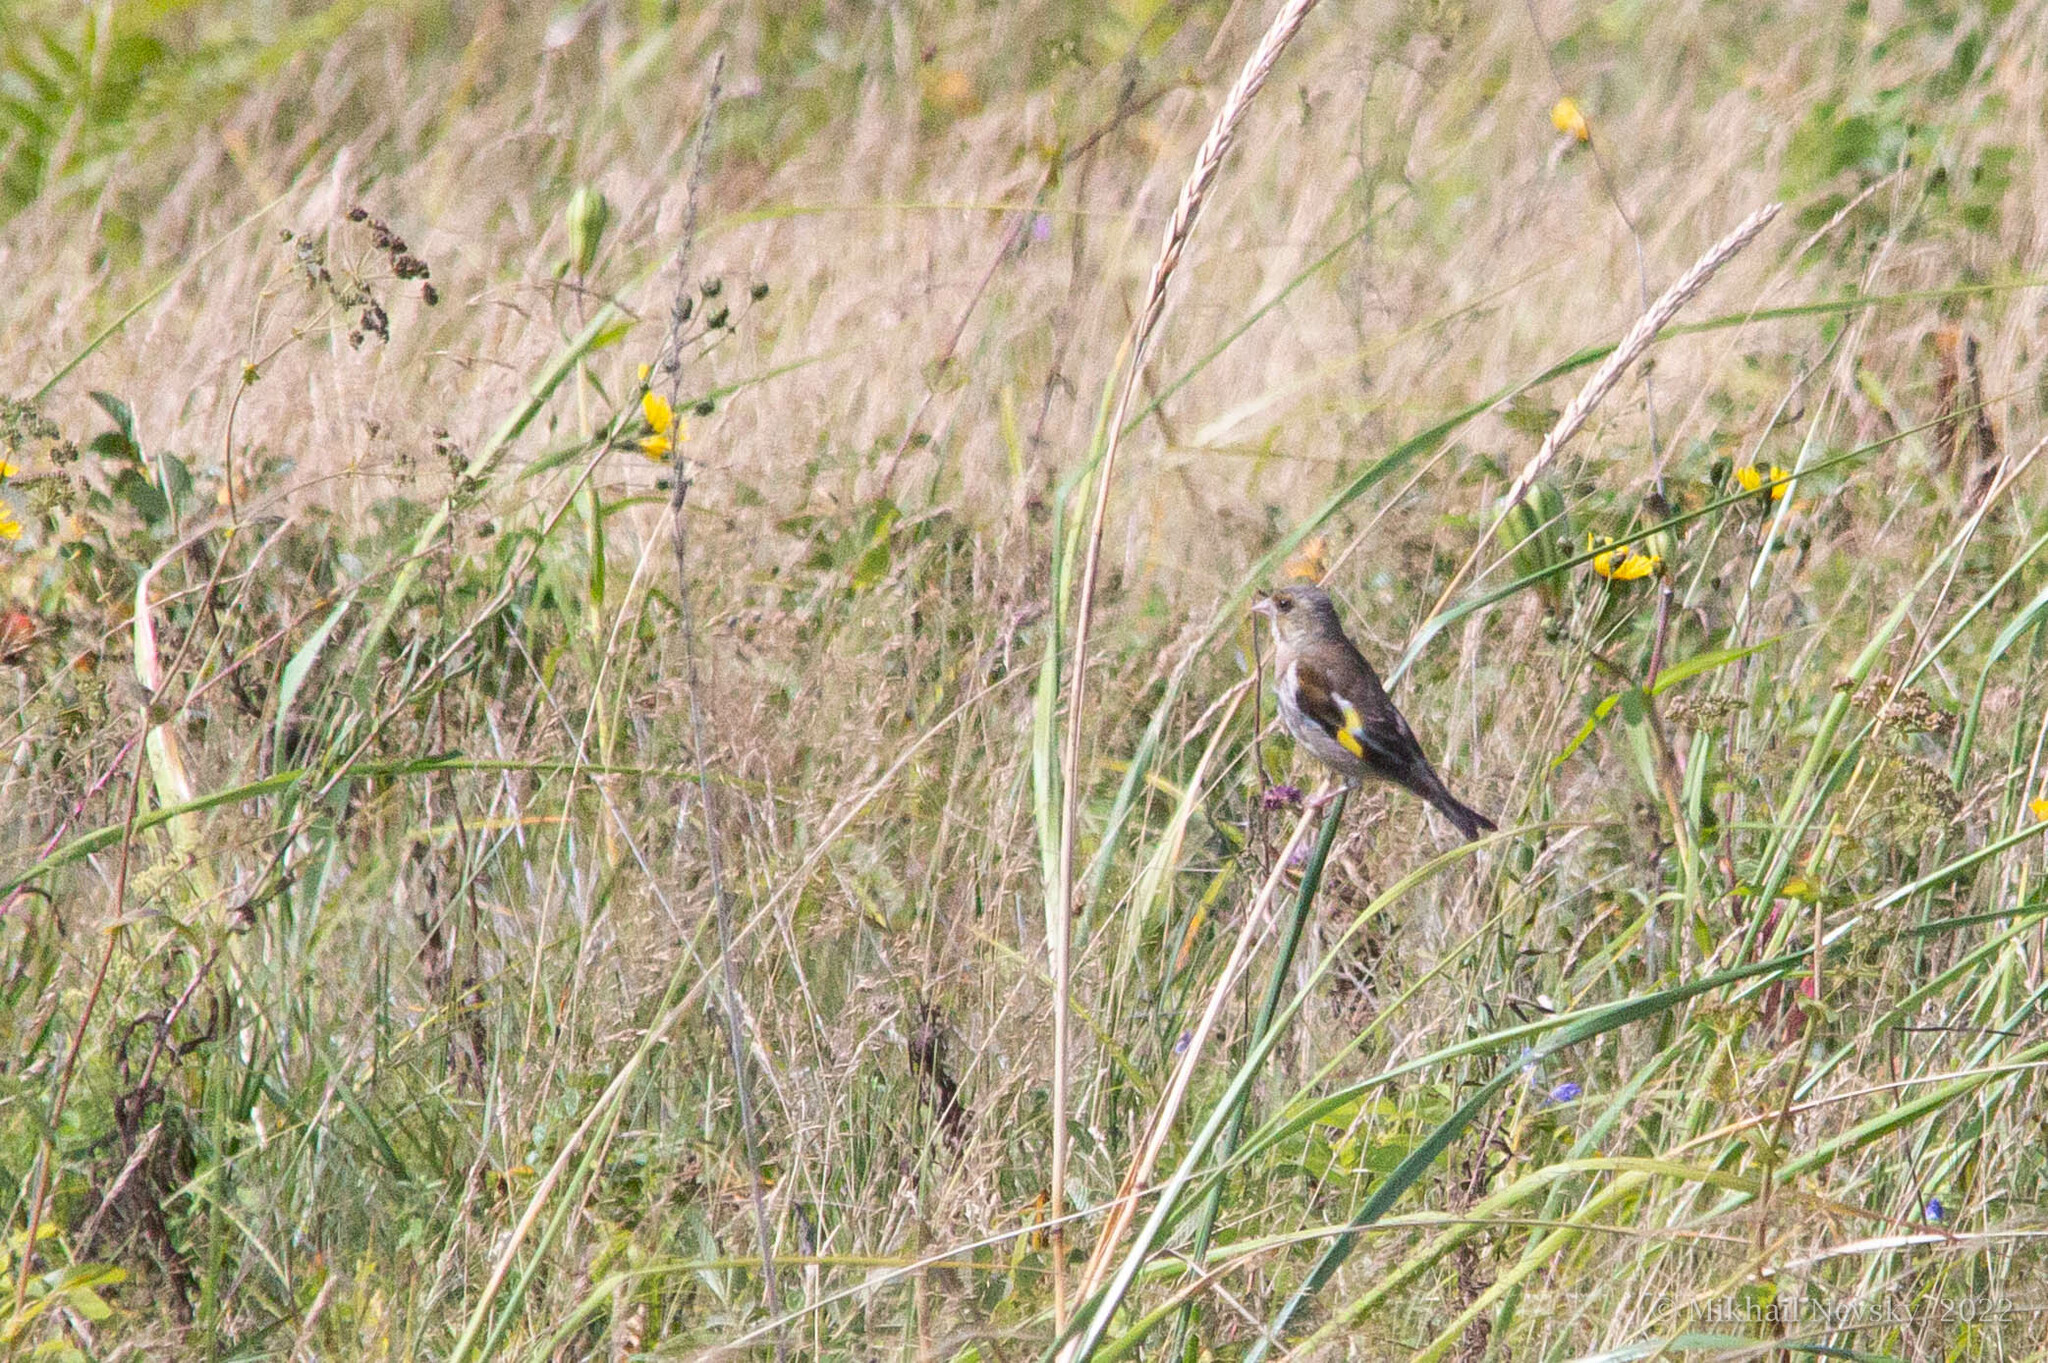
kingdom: Plantae
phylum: Tracheophyta
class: Liliopsida
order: Poales
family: Poaceae
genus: Chloris
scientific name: Chloris sinica
